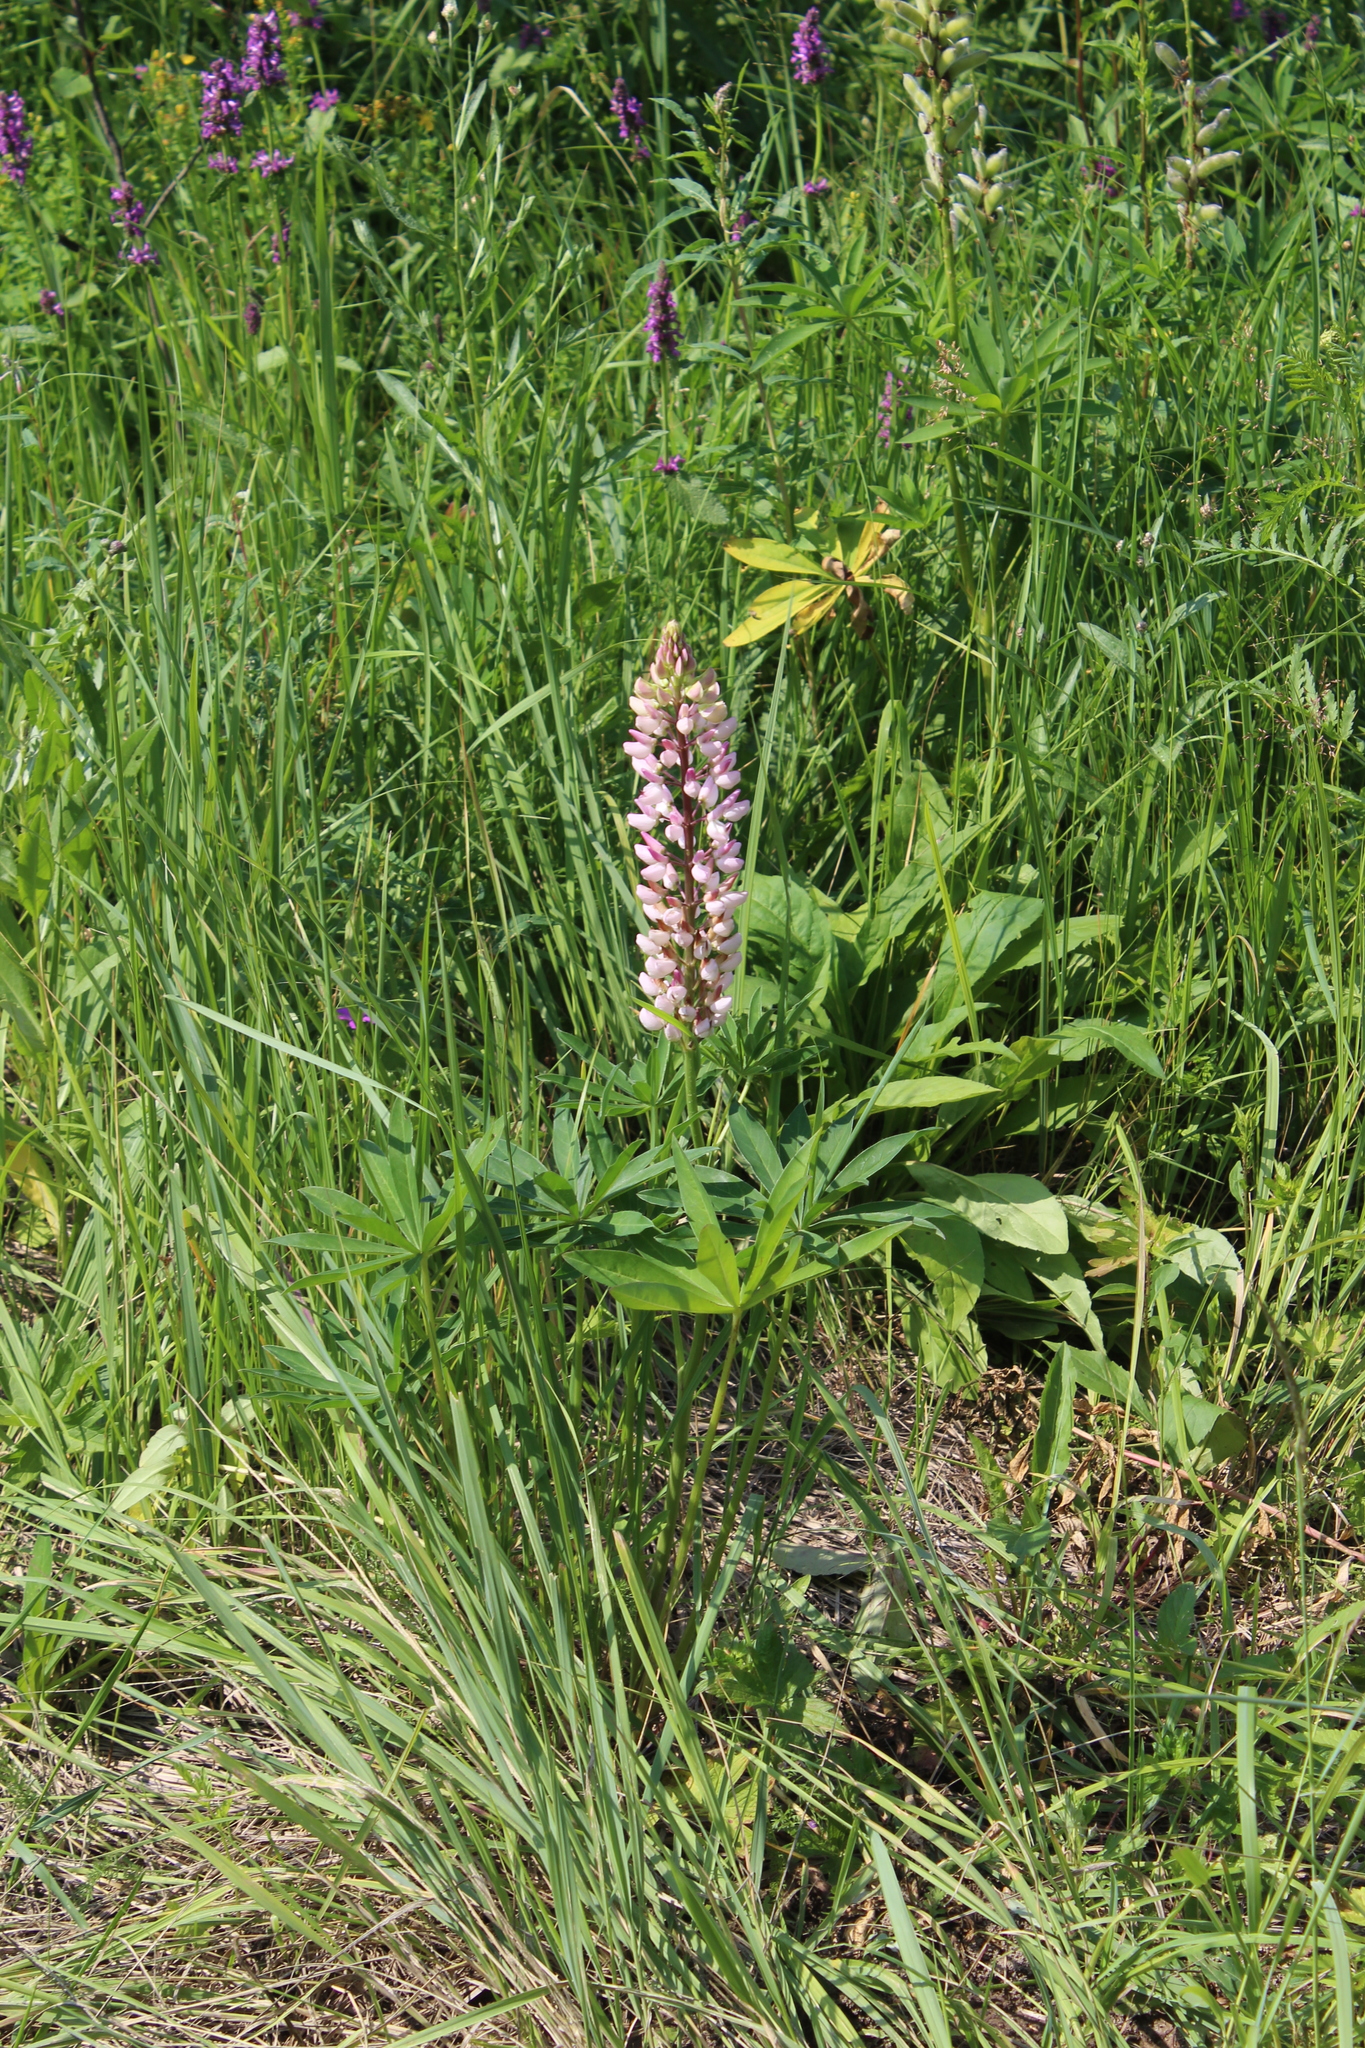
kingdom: Plantae
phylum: Tracheophyta
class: Magnoliopsida
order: Fabales
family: Fabaceae
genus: Lupinus
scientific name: Lupinus polyphyllus
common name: Garden lupin
